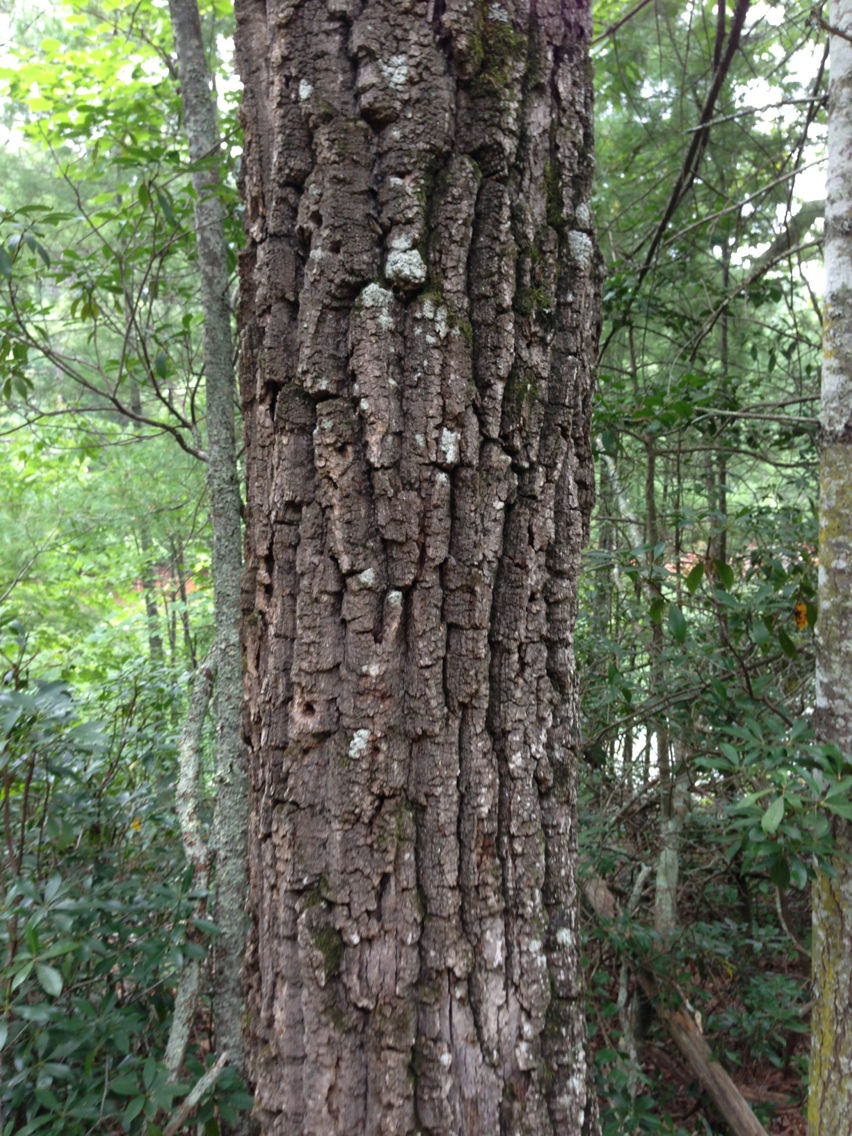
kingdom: Plantae
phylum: Tracheophyta
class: Magnoliopsida
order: Fagales
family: Fagaceae
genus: Quercus
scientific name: Quercus montana
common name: Chestnut oak
